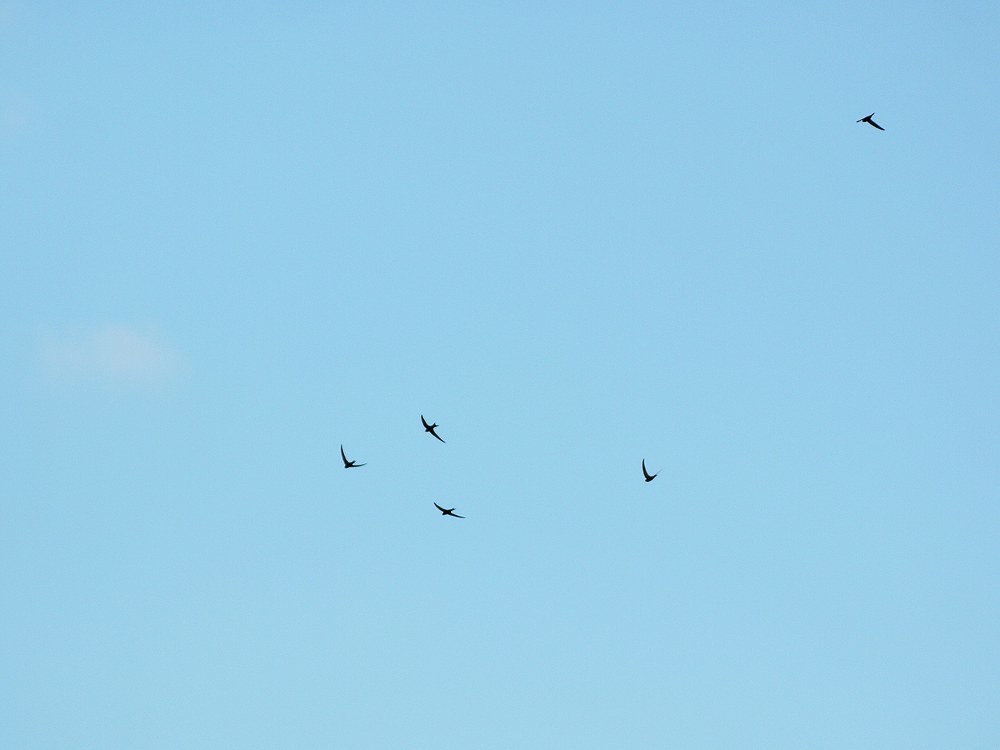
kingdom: Animalia
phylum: Chordata
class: Aves
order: Apodiformes
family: Apodidae
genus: Apus
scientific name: Apus apus
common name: Common swift
